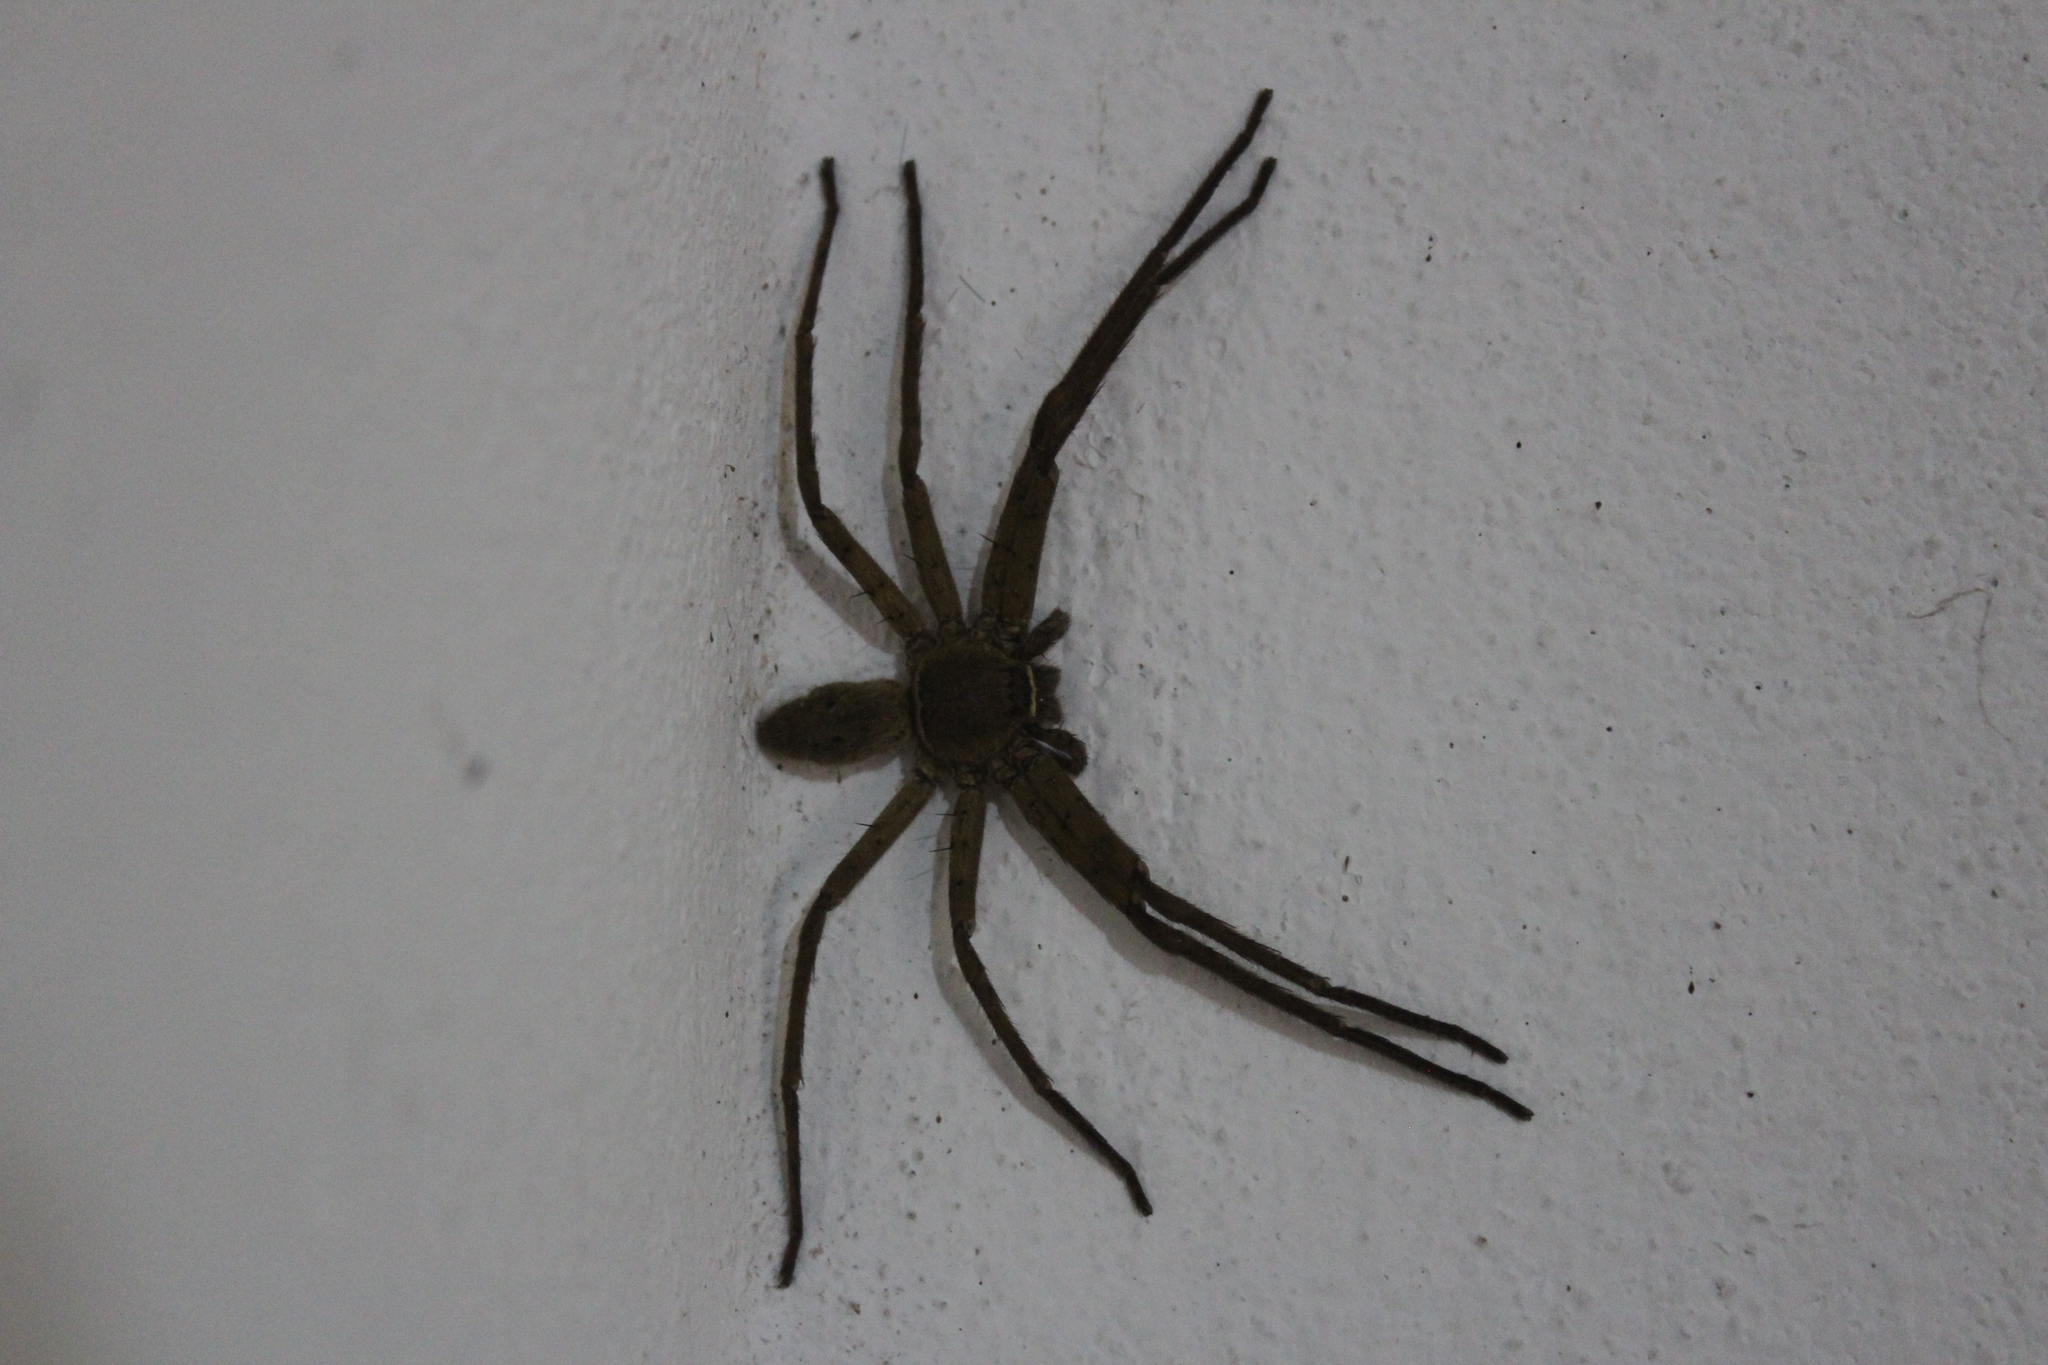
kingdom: Animalia
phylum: Arthropoda
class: Arachnida
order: Araneae
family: Sparassidae
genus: Heteropoda
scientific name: Heteropoda venatoria
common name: Huntsman spider
